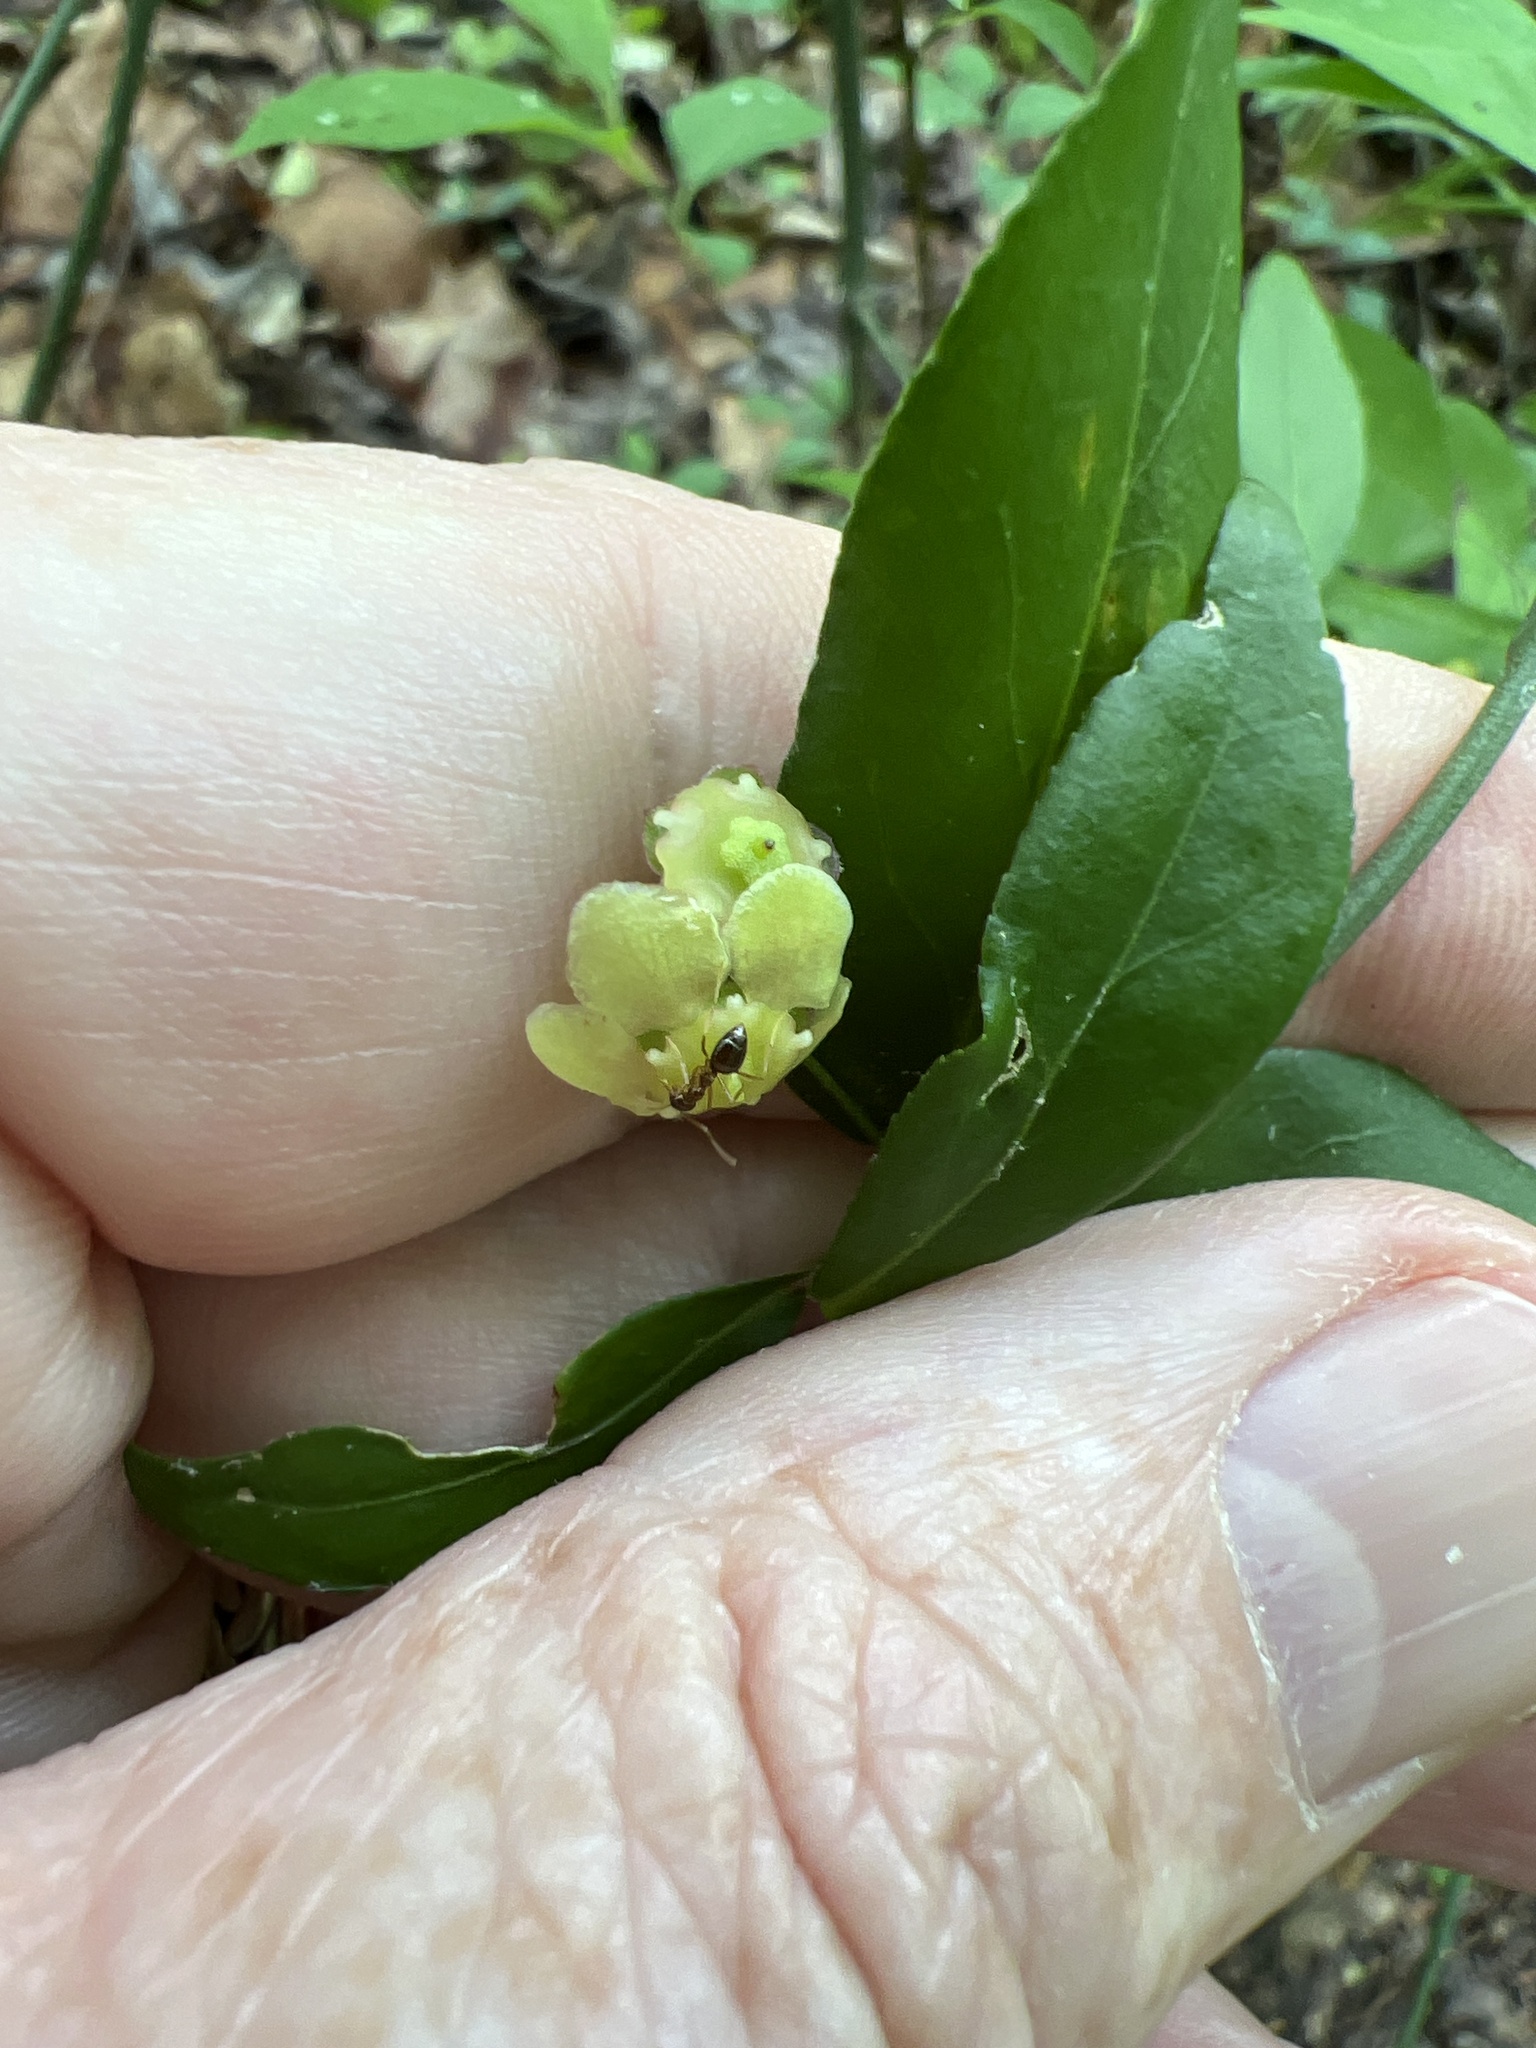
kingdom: Animalia
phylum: Arthropoda
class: Insecta
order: Hymenoptera
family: Formicidae
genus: Prenolepis
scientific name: Prenolepis imparis
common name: Small honey ant
